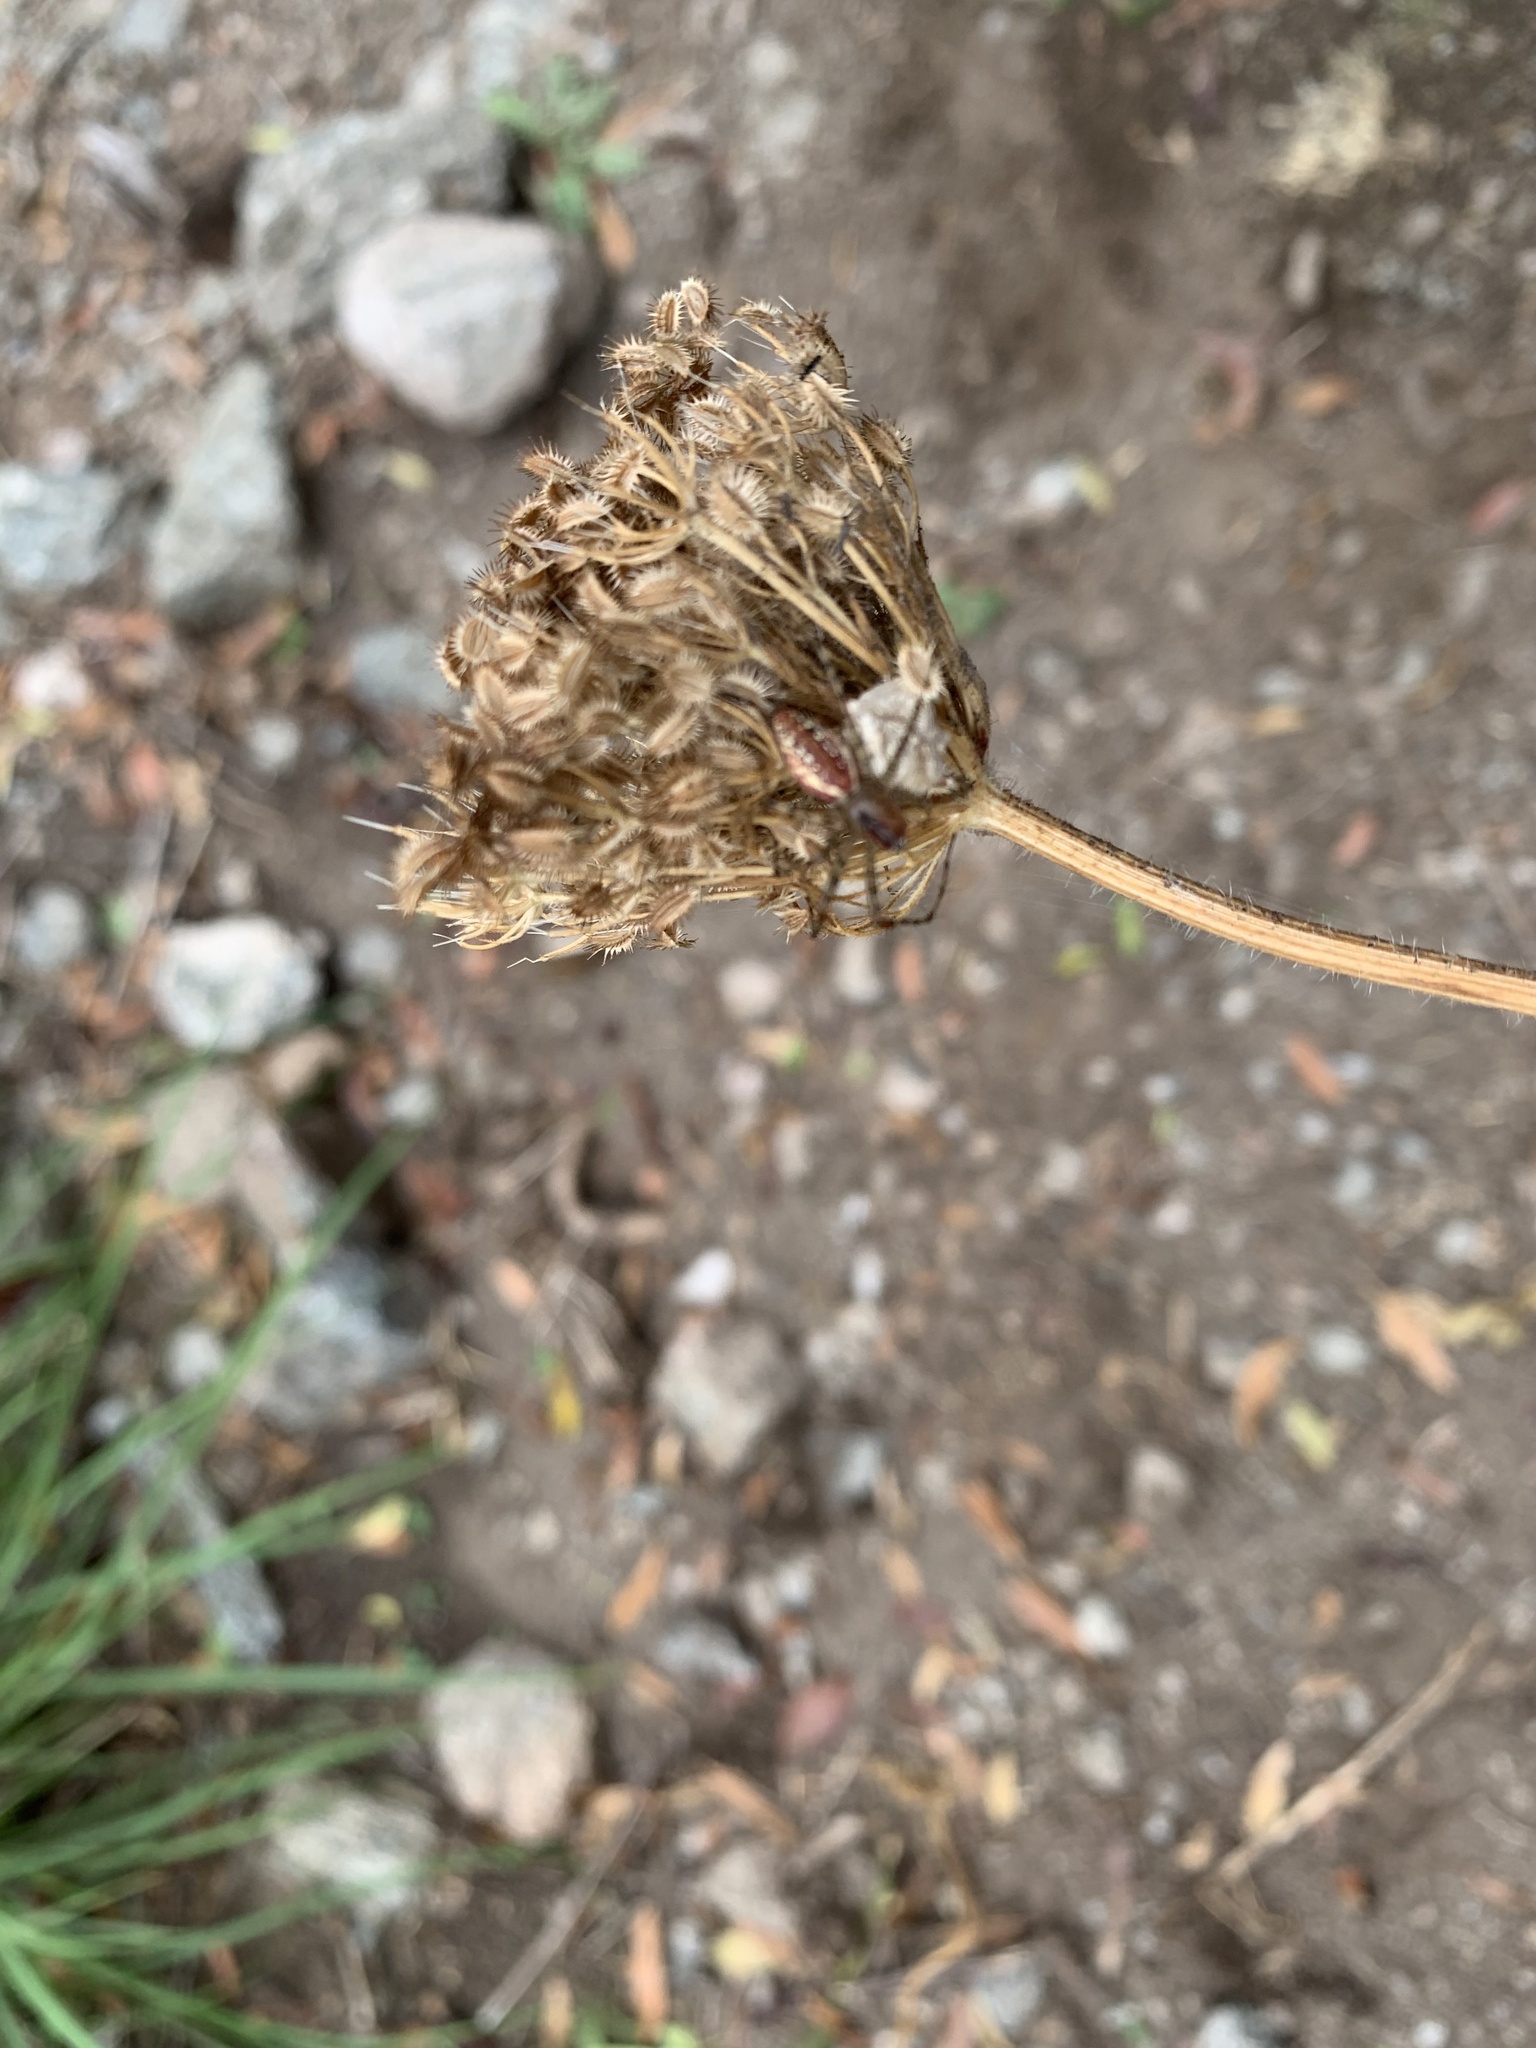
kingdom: Animalia
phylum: Arthropoda
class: Arachnida
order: Araneae
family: Oxyopidae
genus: Peucetia
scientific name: Peucetia flava
